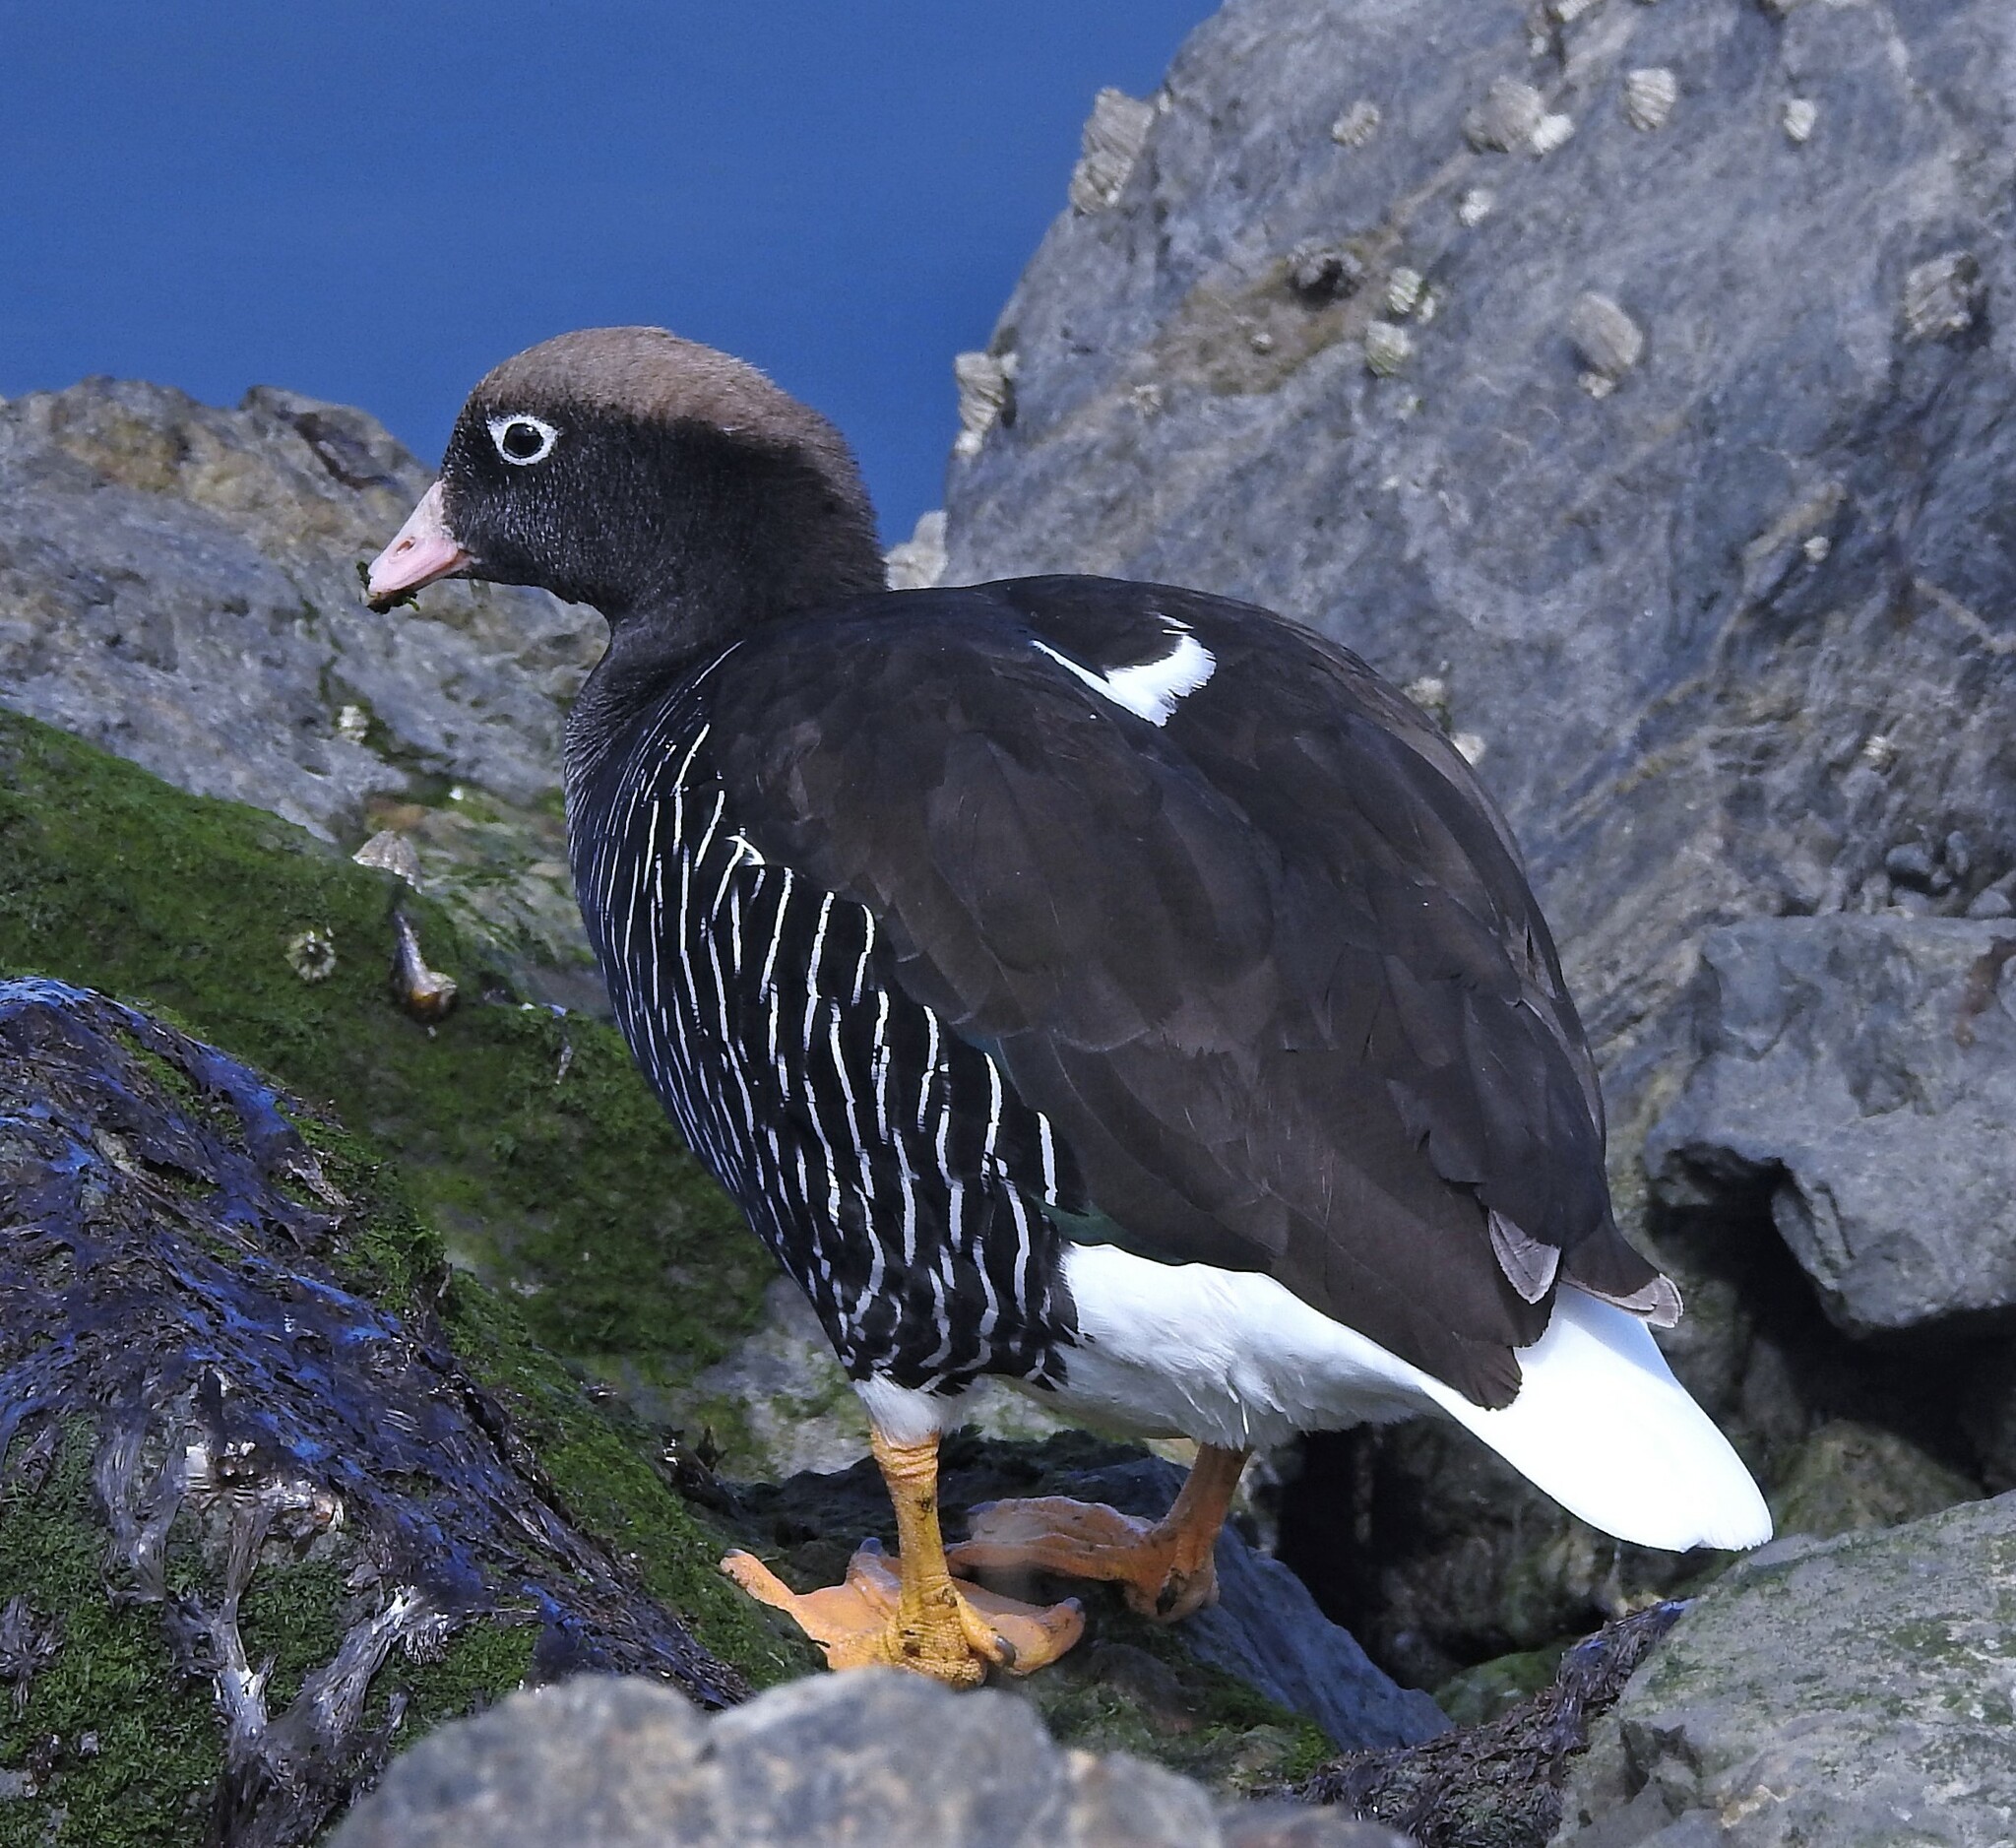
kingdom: Animalia
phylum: Chordata
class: Aves
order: Anseriformes
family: Anatidae
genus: Chloephaga
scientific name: Chloephaga hybrida
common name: Kelp goose
